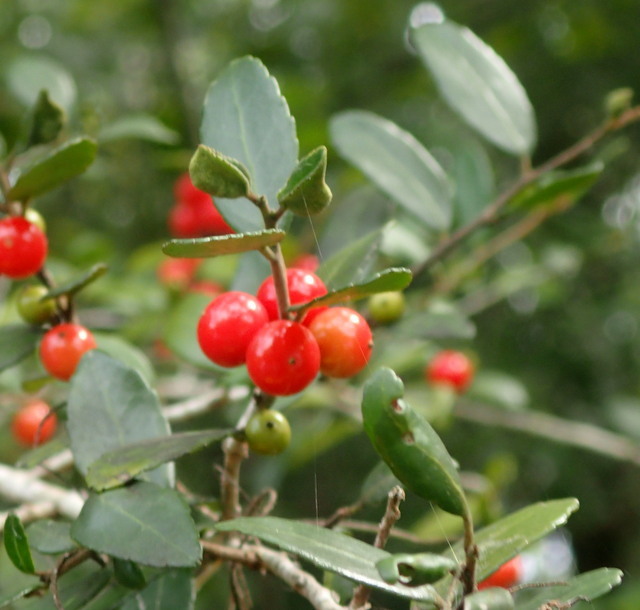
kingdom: Plantae
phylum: Tracheophyta
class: Magnoliopsida
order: Aquifoliales
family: Aquifoliaceae
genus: Ilex
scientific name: Ilex vomitoria
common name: Yaupon holly
